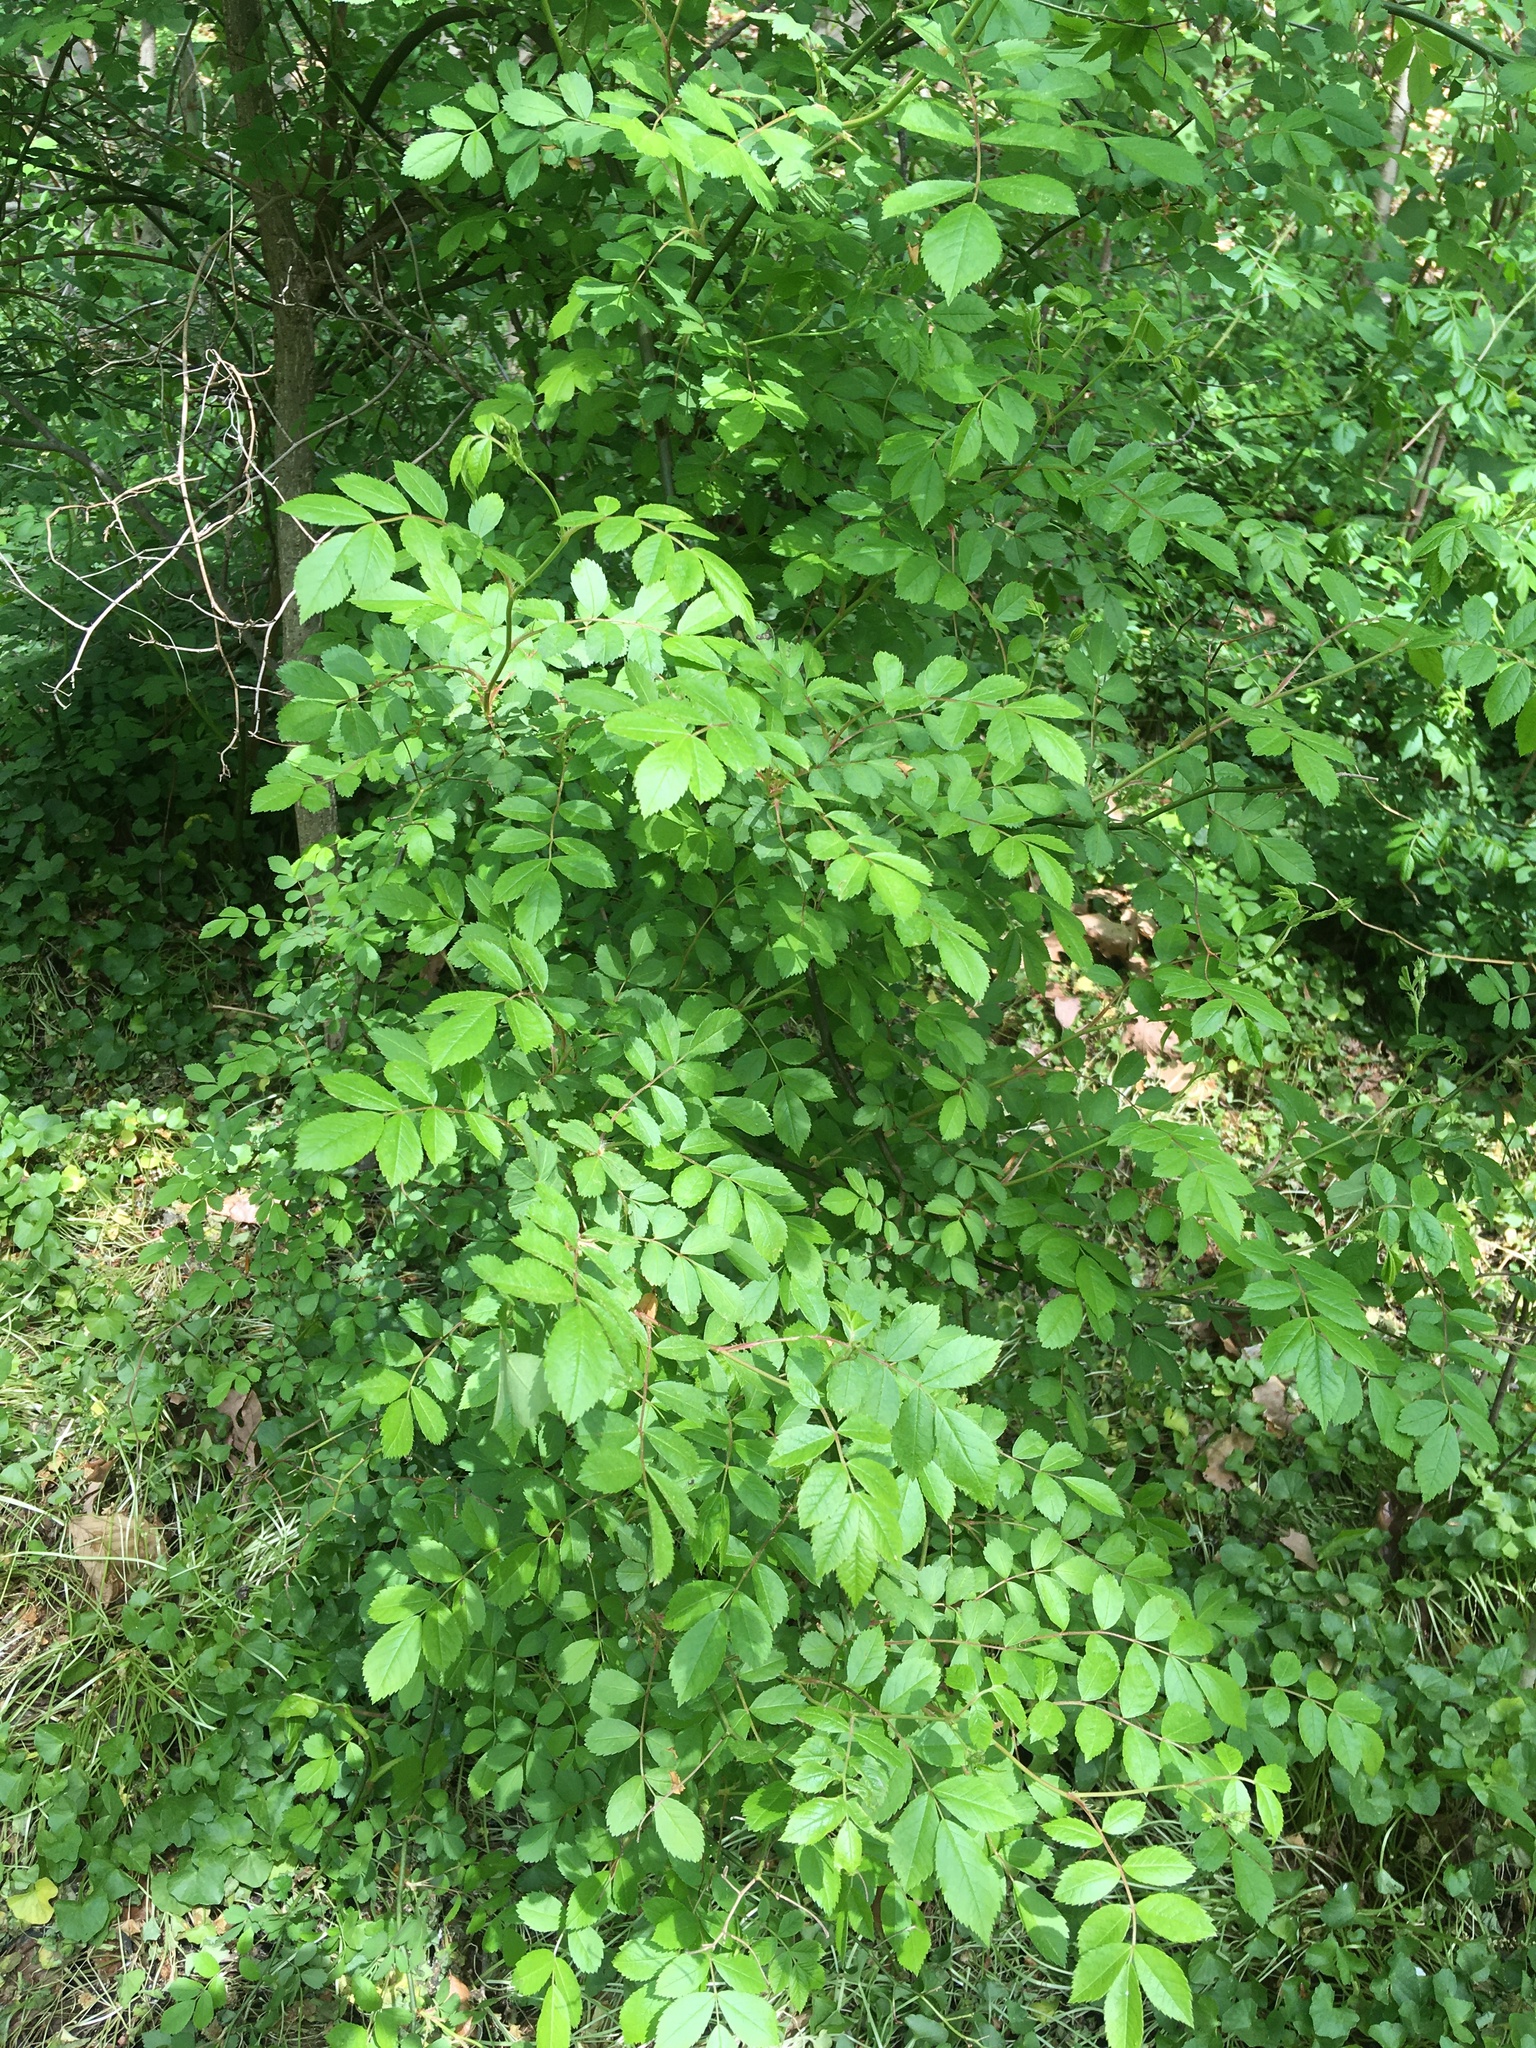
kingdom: Plantae
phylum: Tracheophyta
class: Magnoliopsida
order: Rosales
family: Rosaceae
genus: Rosa
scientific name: Rosa multiflora
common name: Multiflora rose
